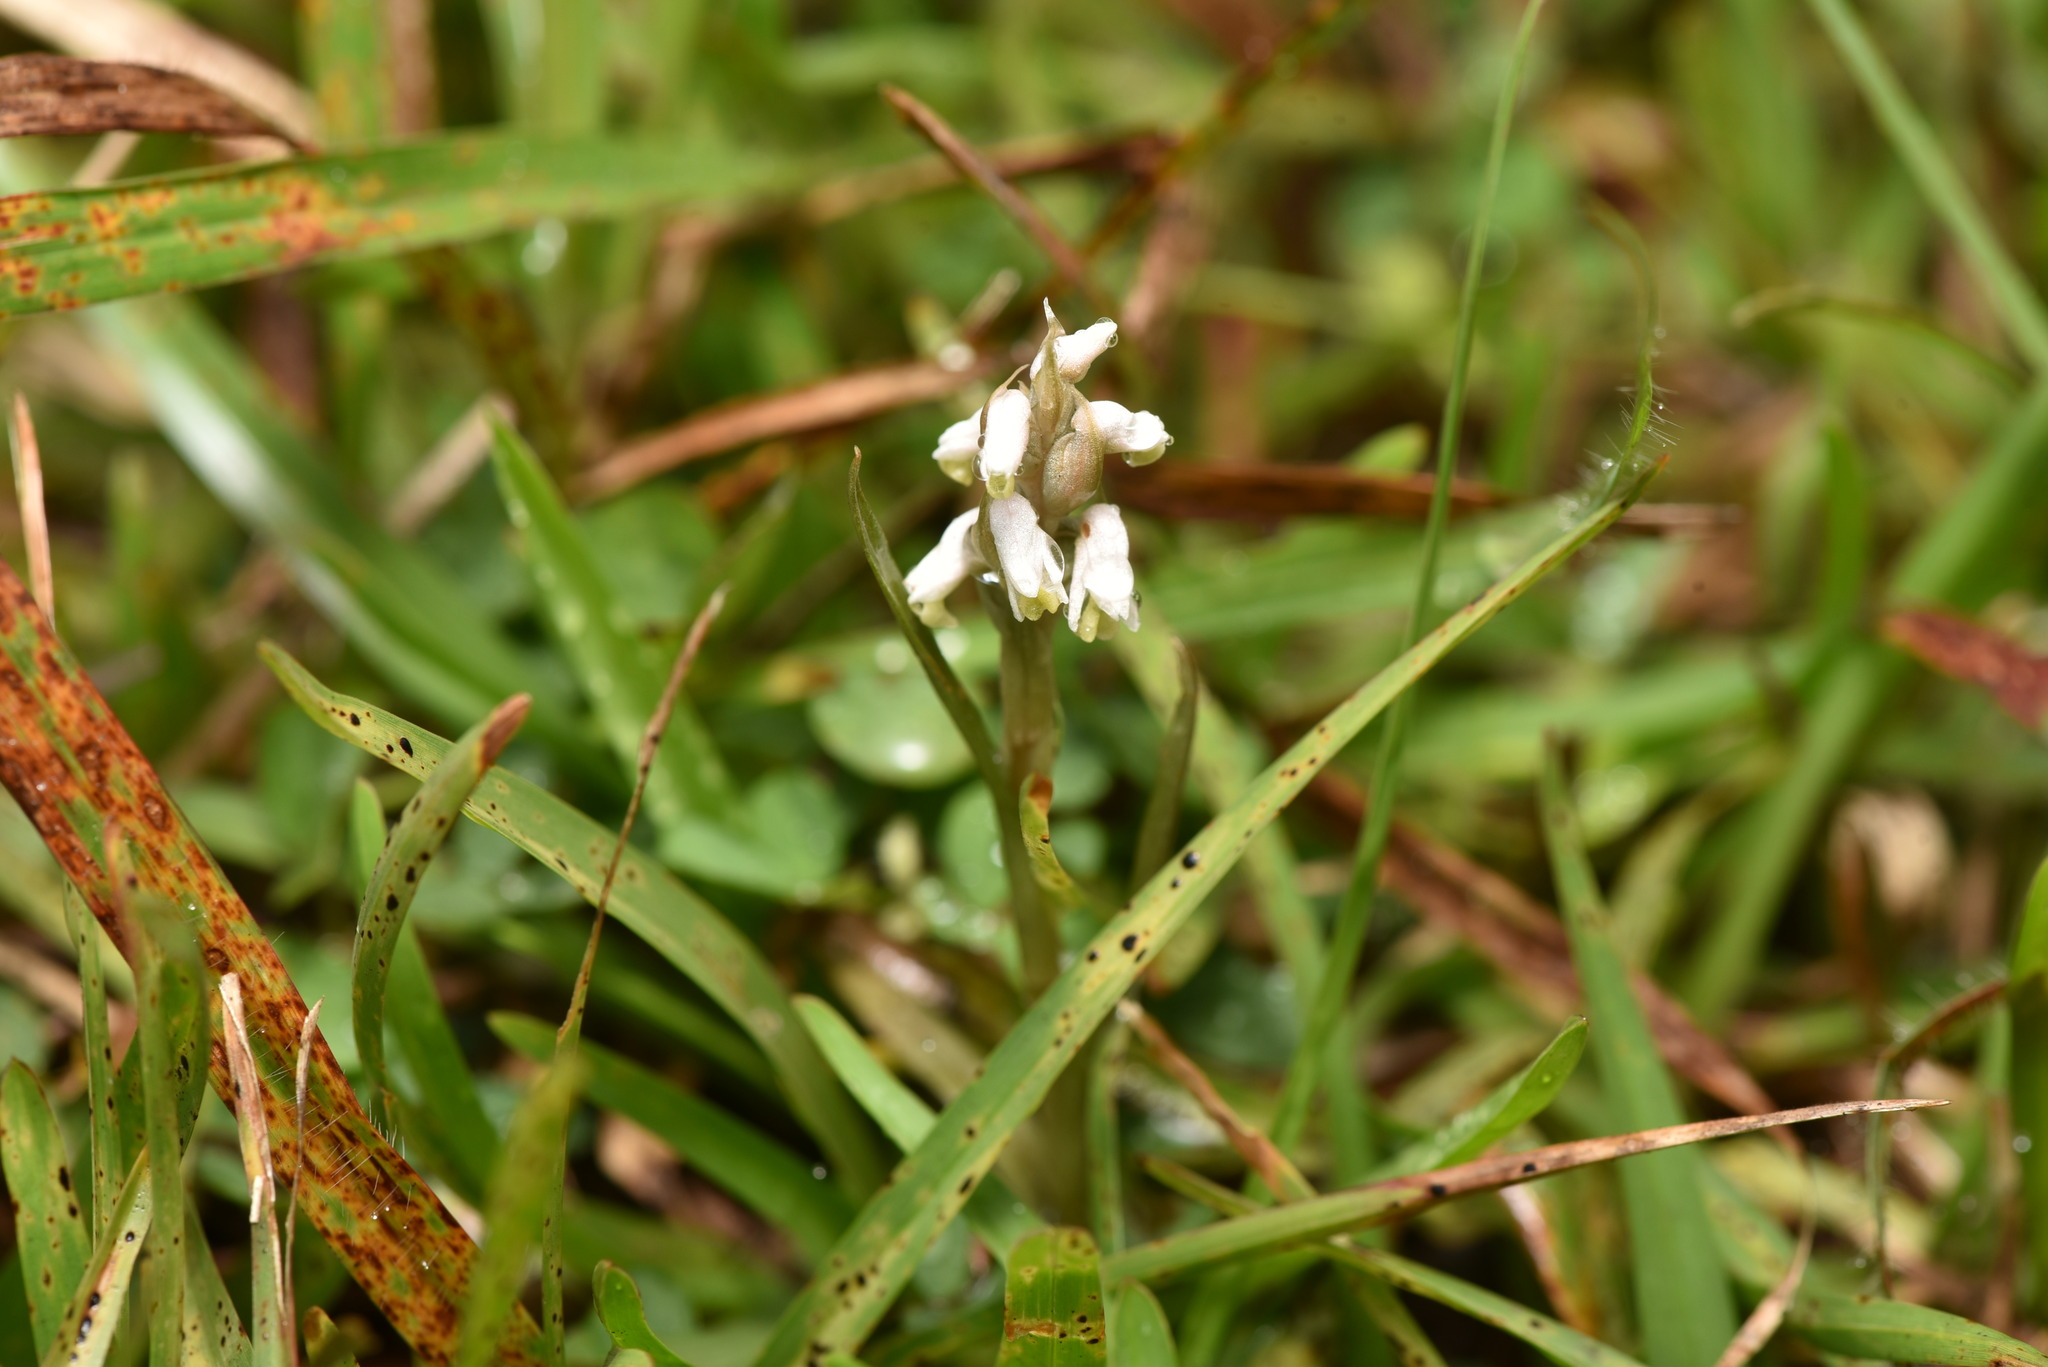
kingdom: Plantae
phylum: Tracheophyta
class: Liliopsida
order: Asparagales
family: Orchidaceae
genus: Zeuxine
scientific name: Zeuxine strateumatica
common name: Soldier's orchid
